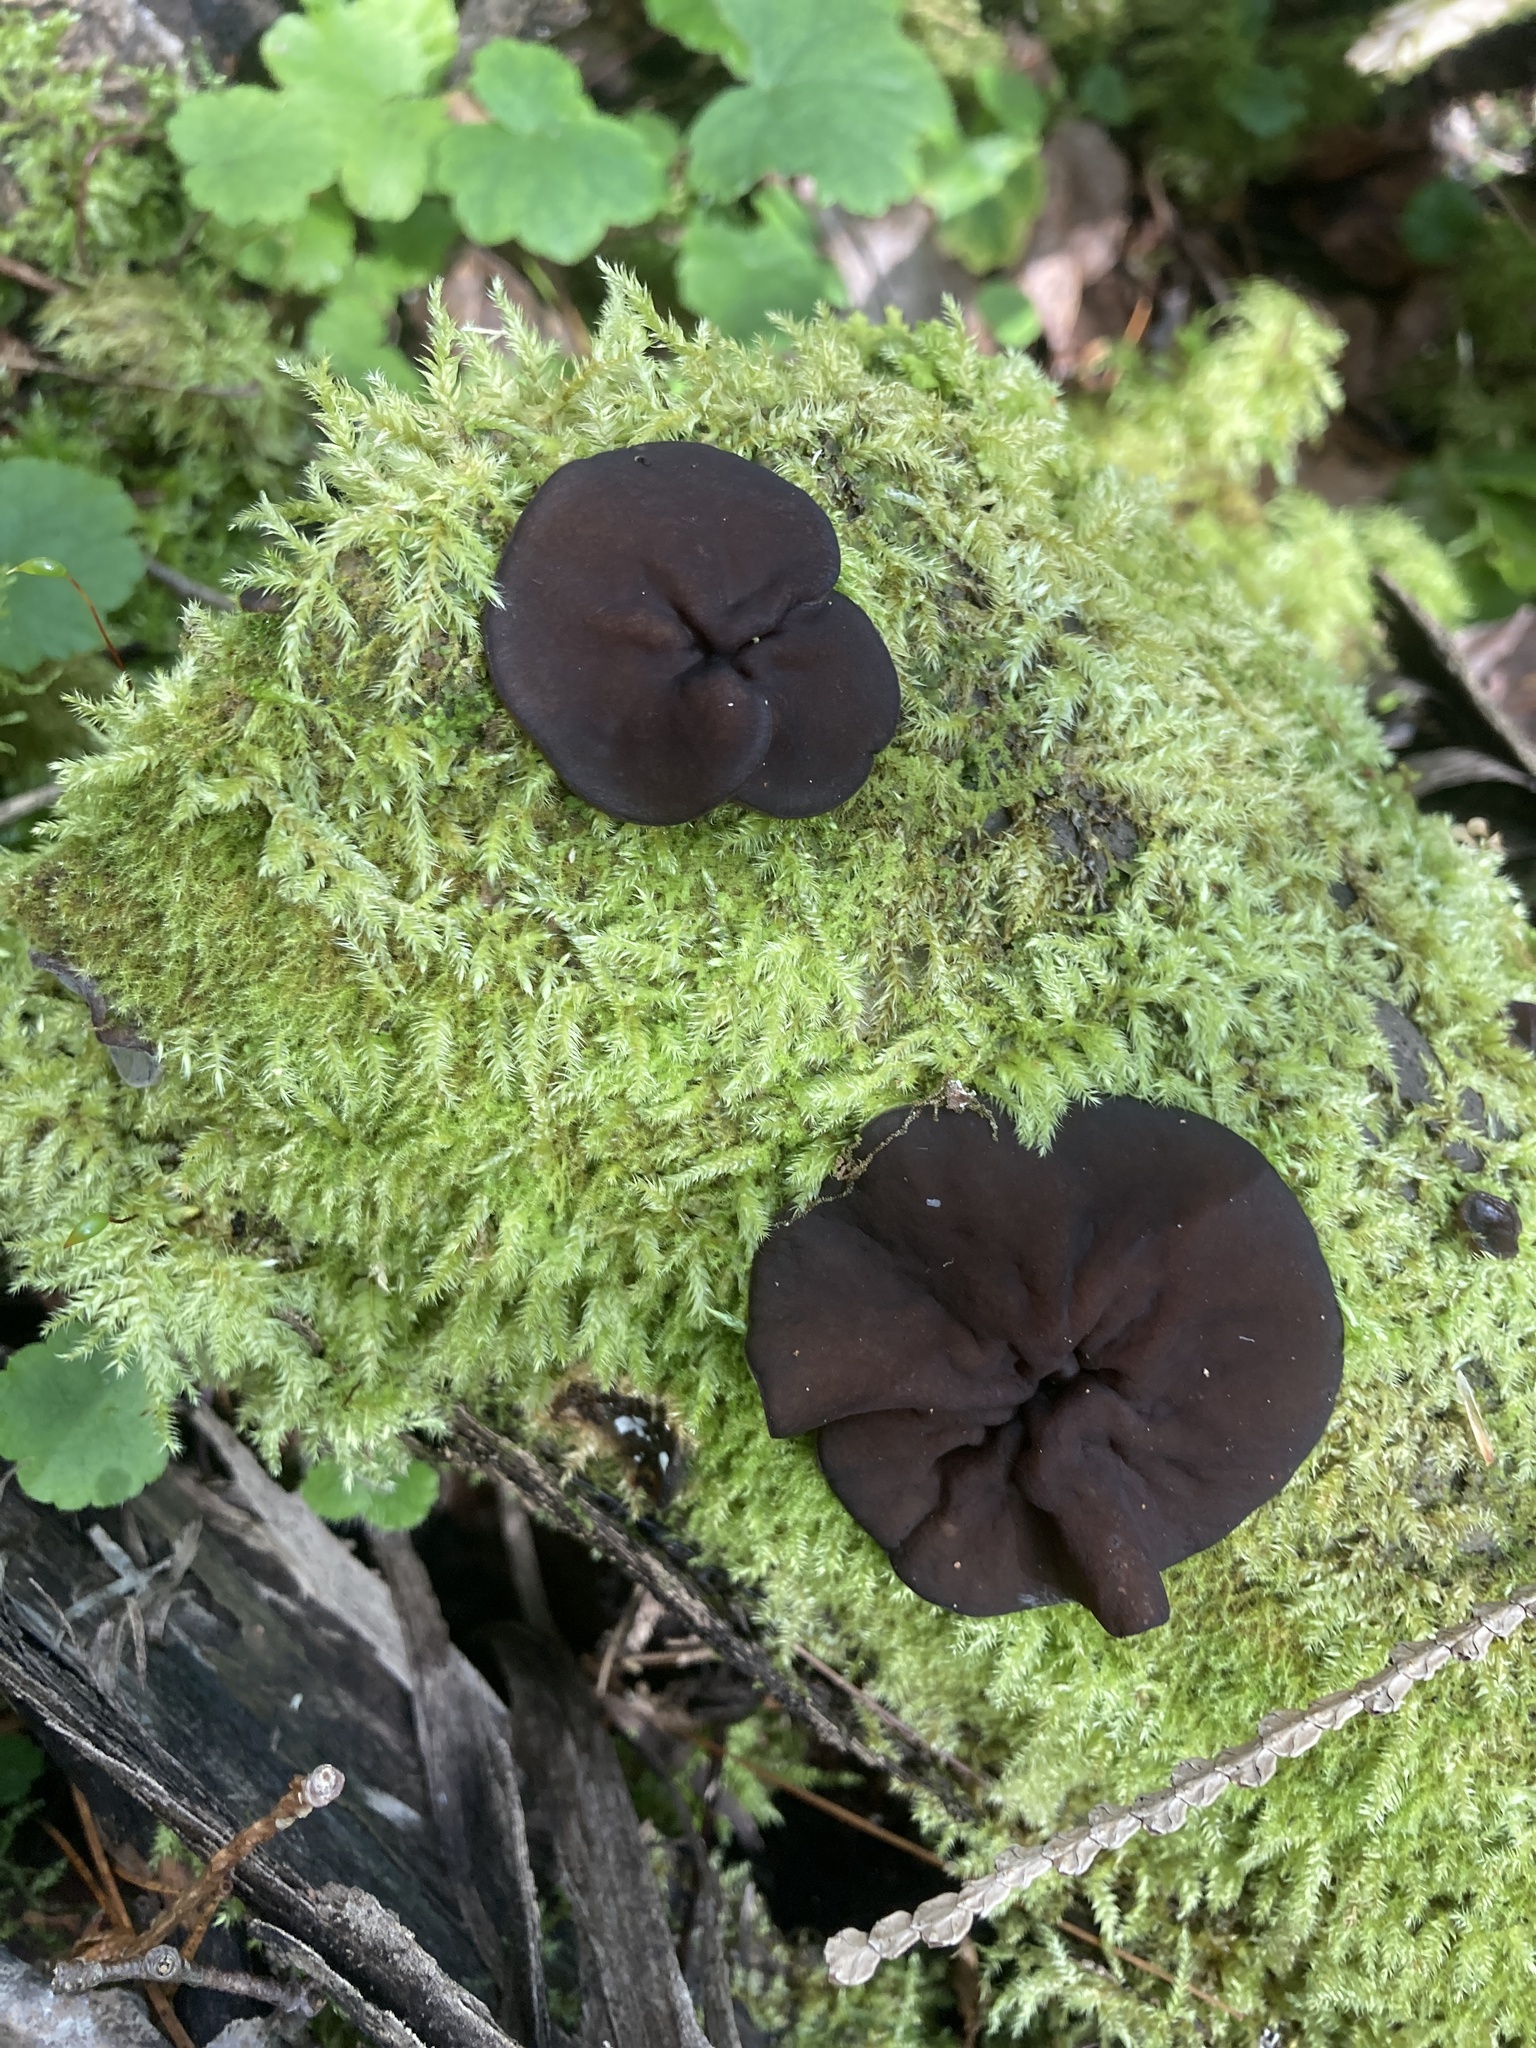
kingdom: Fungi
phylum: Ascomycota
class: Pezizomycetes
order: Pezizales
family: Pezizaceae
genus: Pachyella
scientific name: Pachyella clypeata
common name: Copper penny fungus
